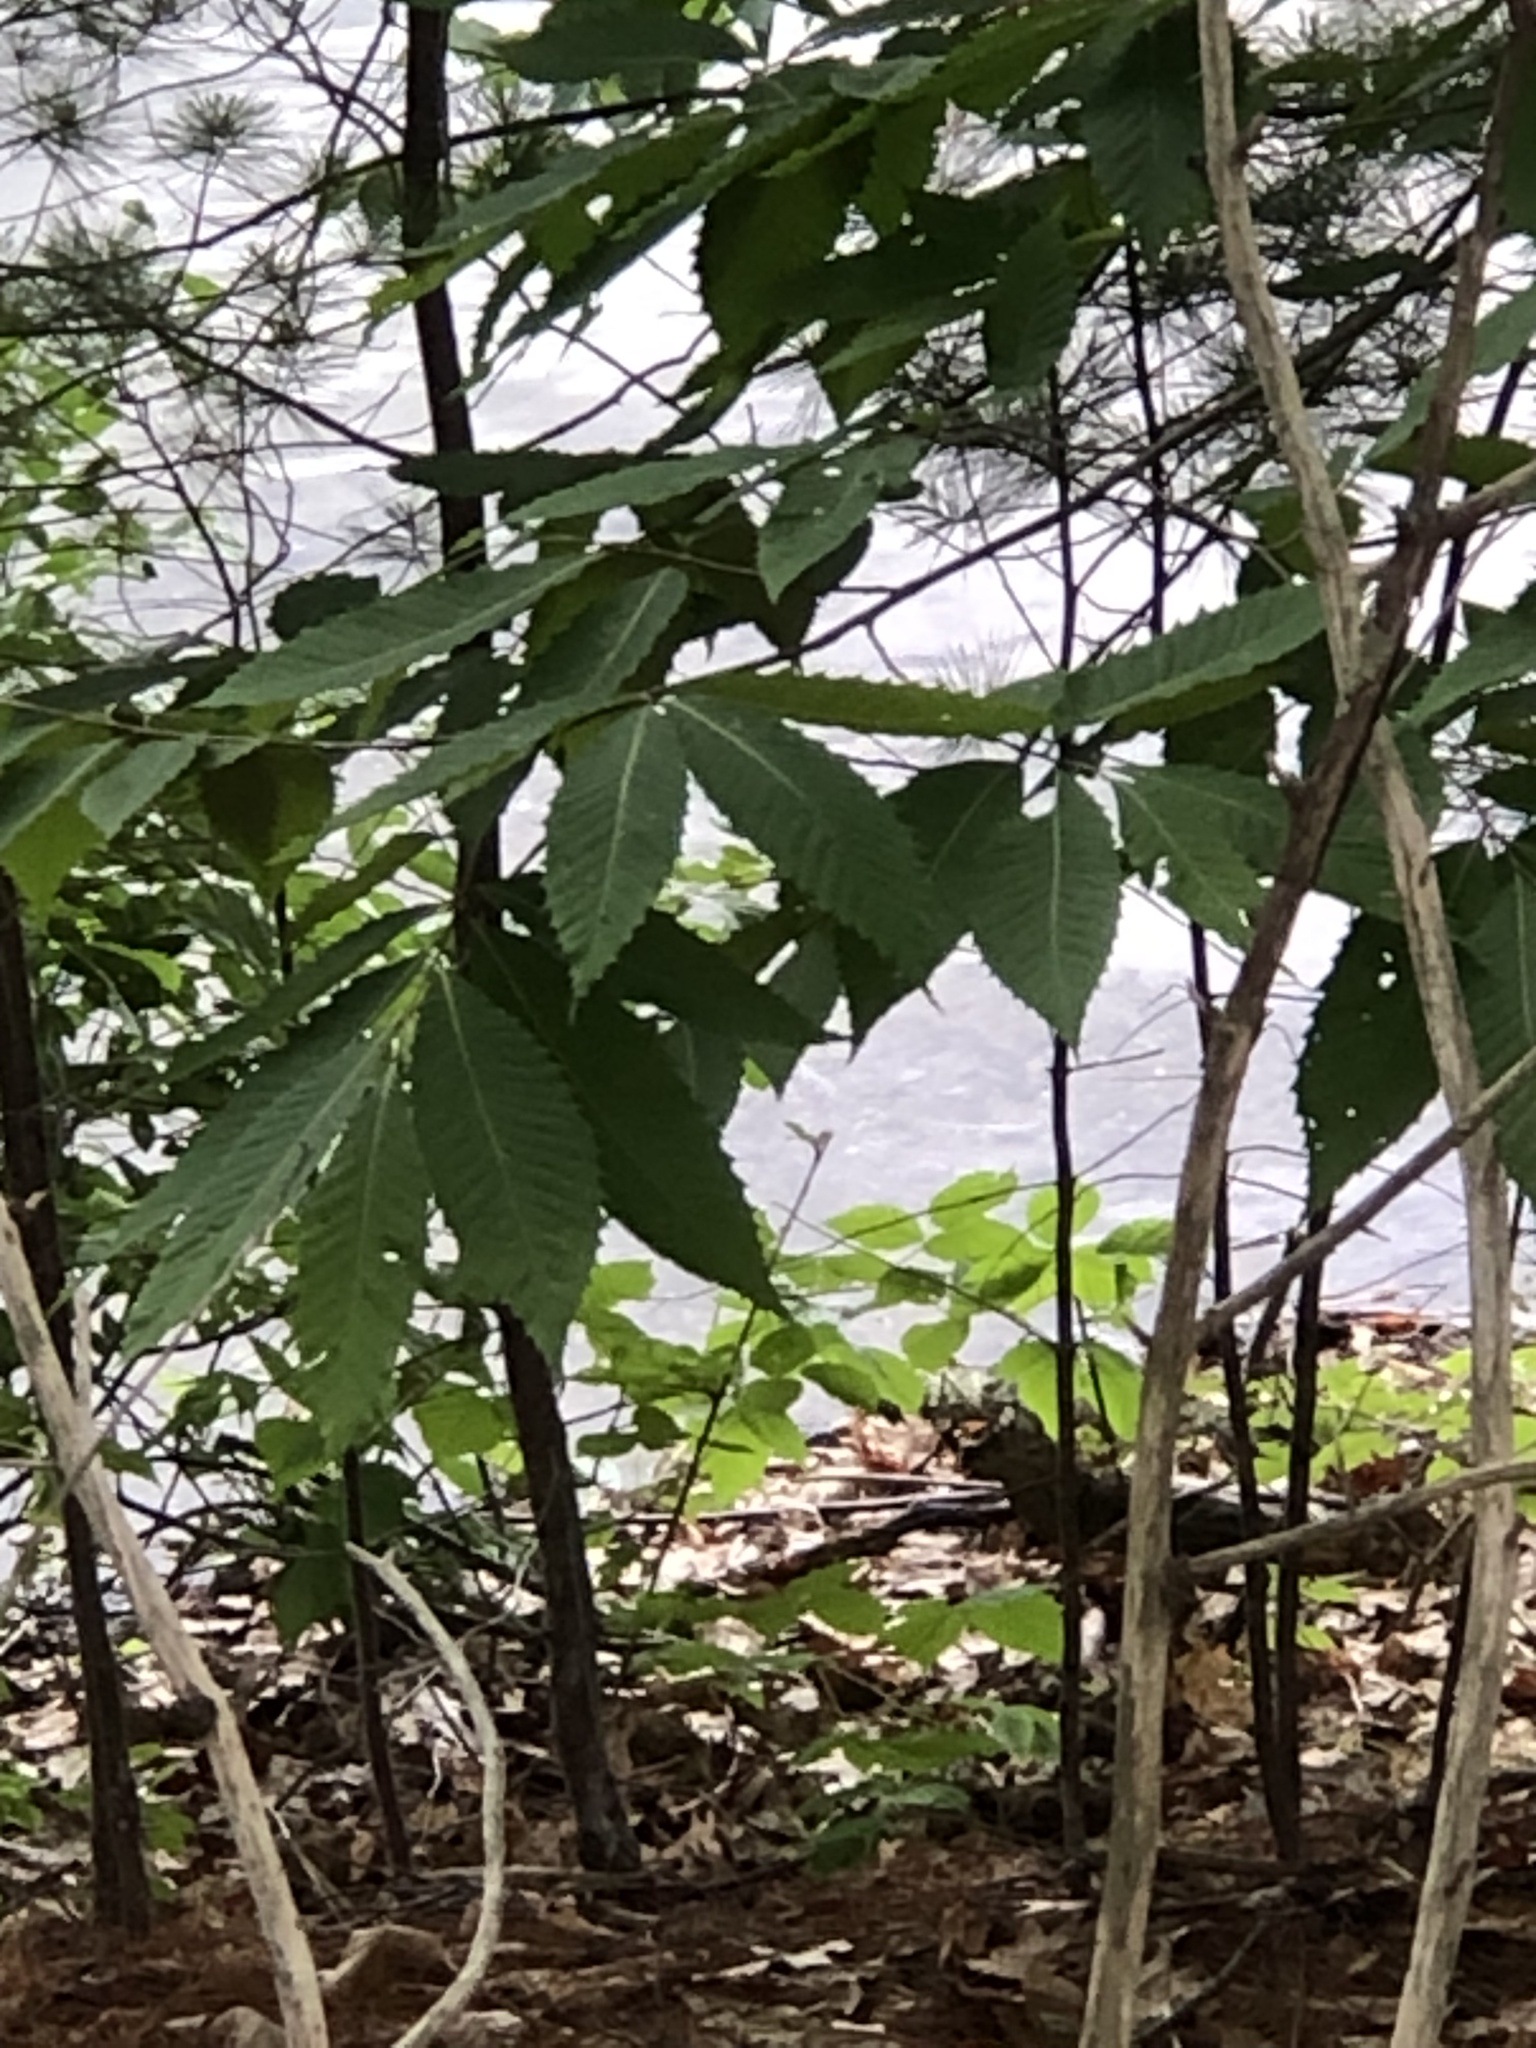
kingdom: Plantae
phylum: Tracheophyta
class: Magnoliopsida
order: Fagales
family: Fagaceae
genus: Castanea
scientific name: Castanea dentata
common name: American chestnut
